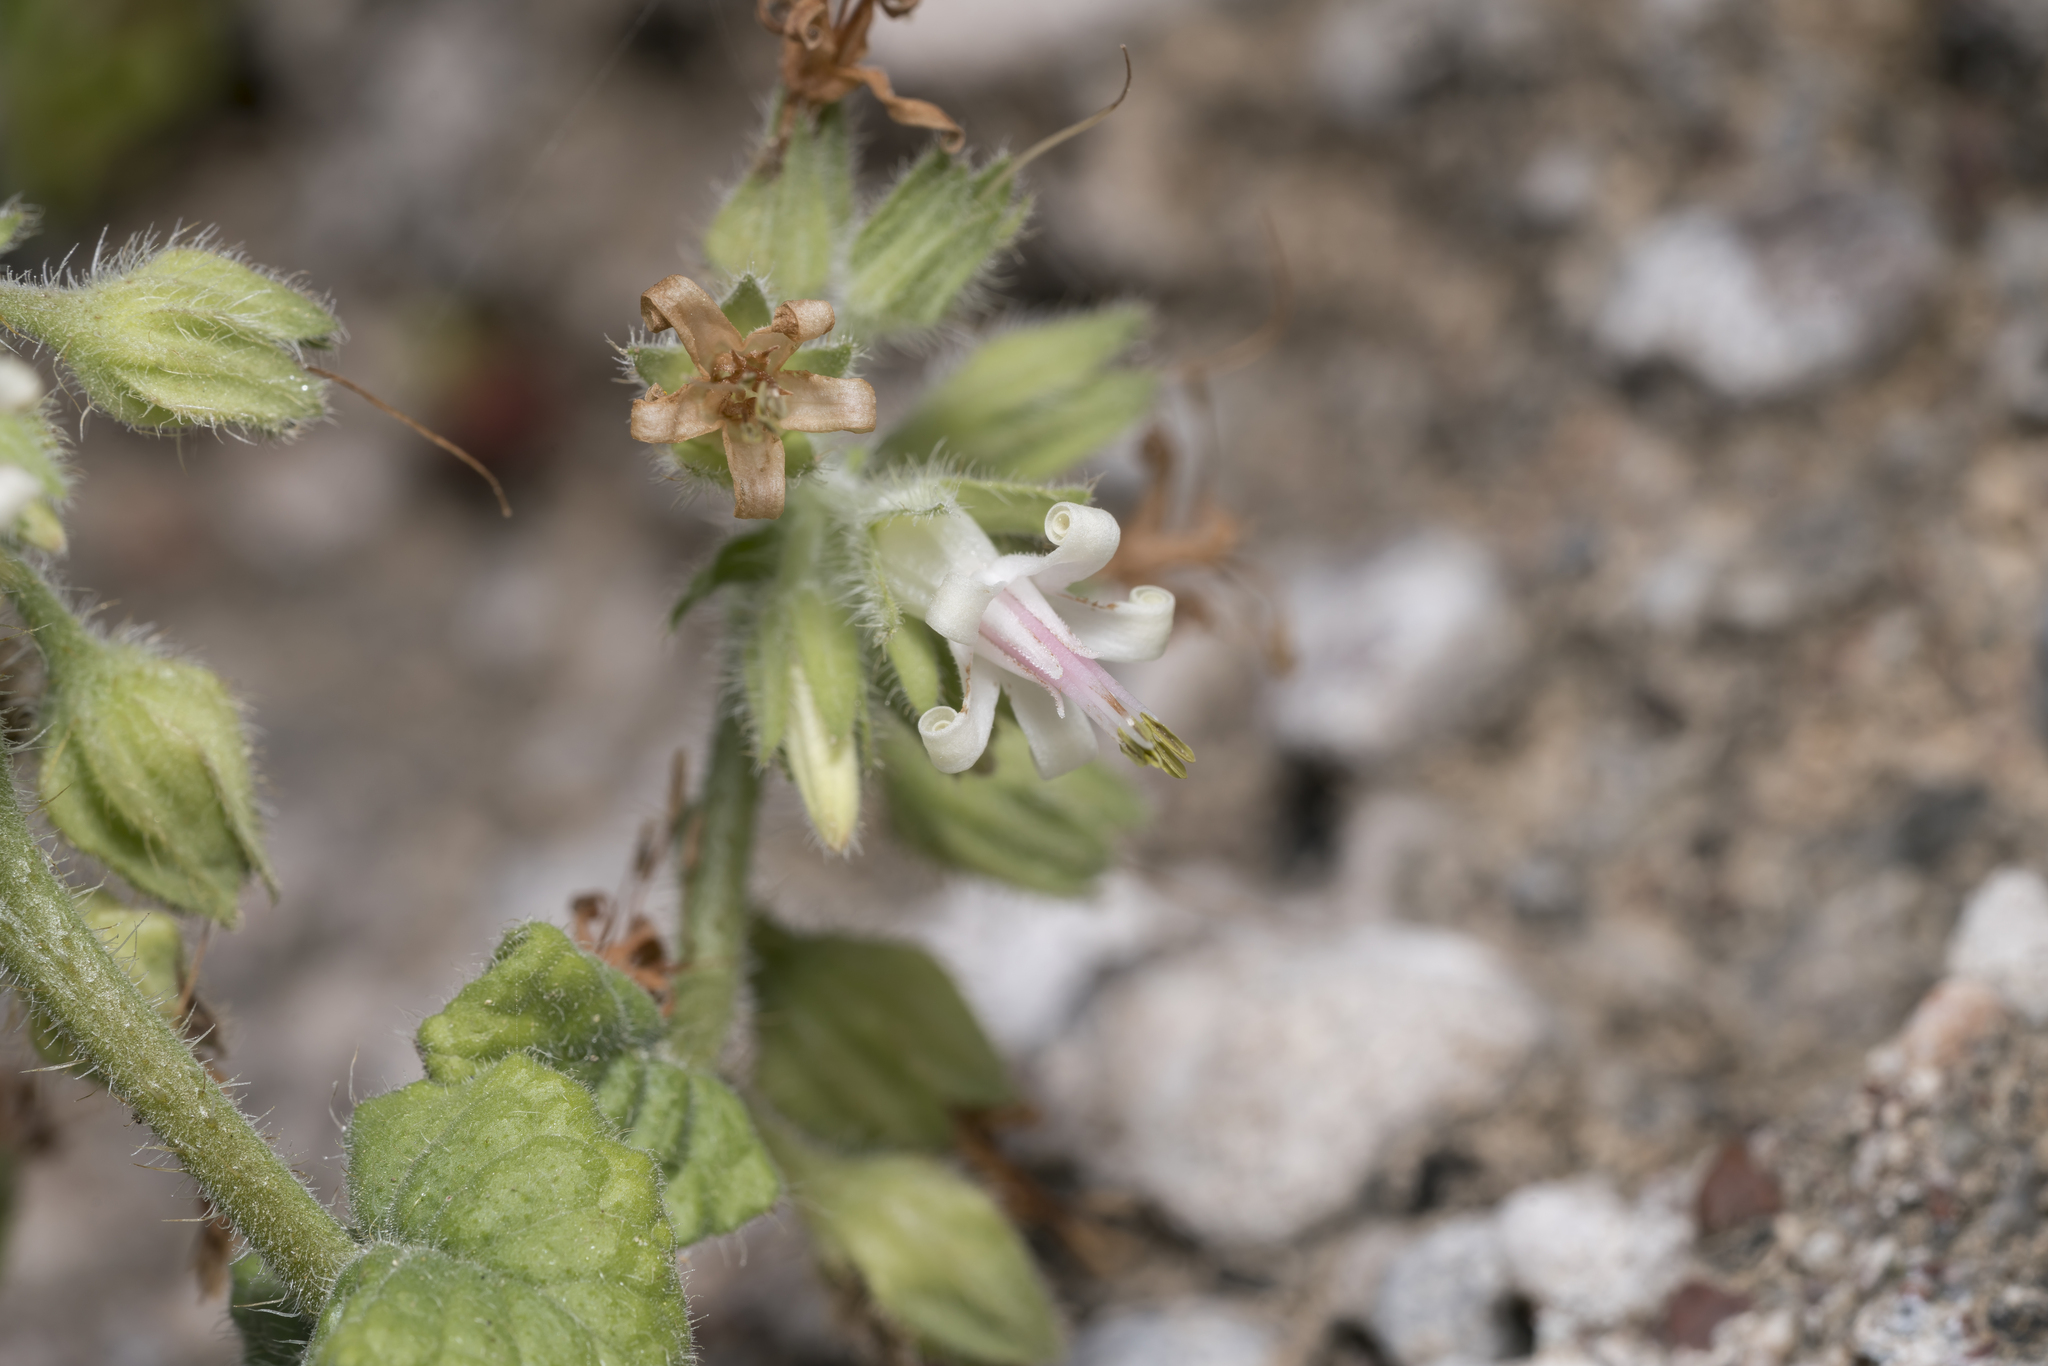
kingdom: Plantae
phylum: Tracheophyta
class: Magnoliopsida
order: Boraginales
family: Boraginaceae
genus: Symphytum
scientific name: Symphytum circinale
